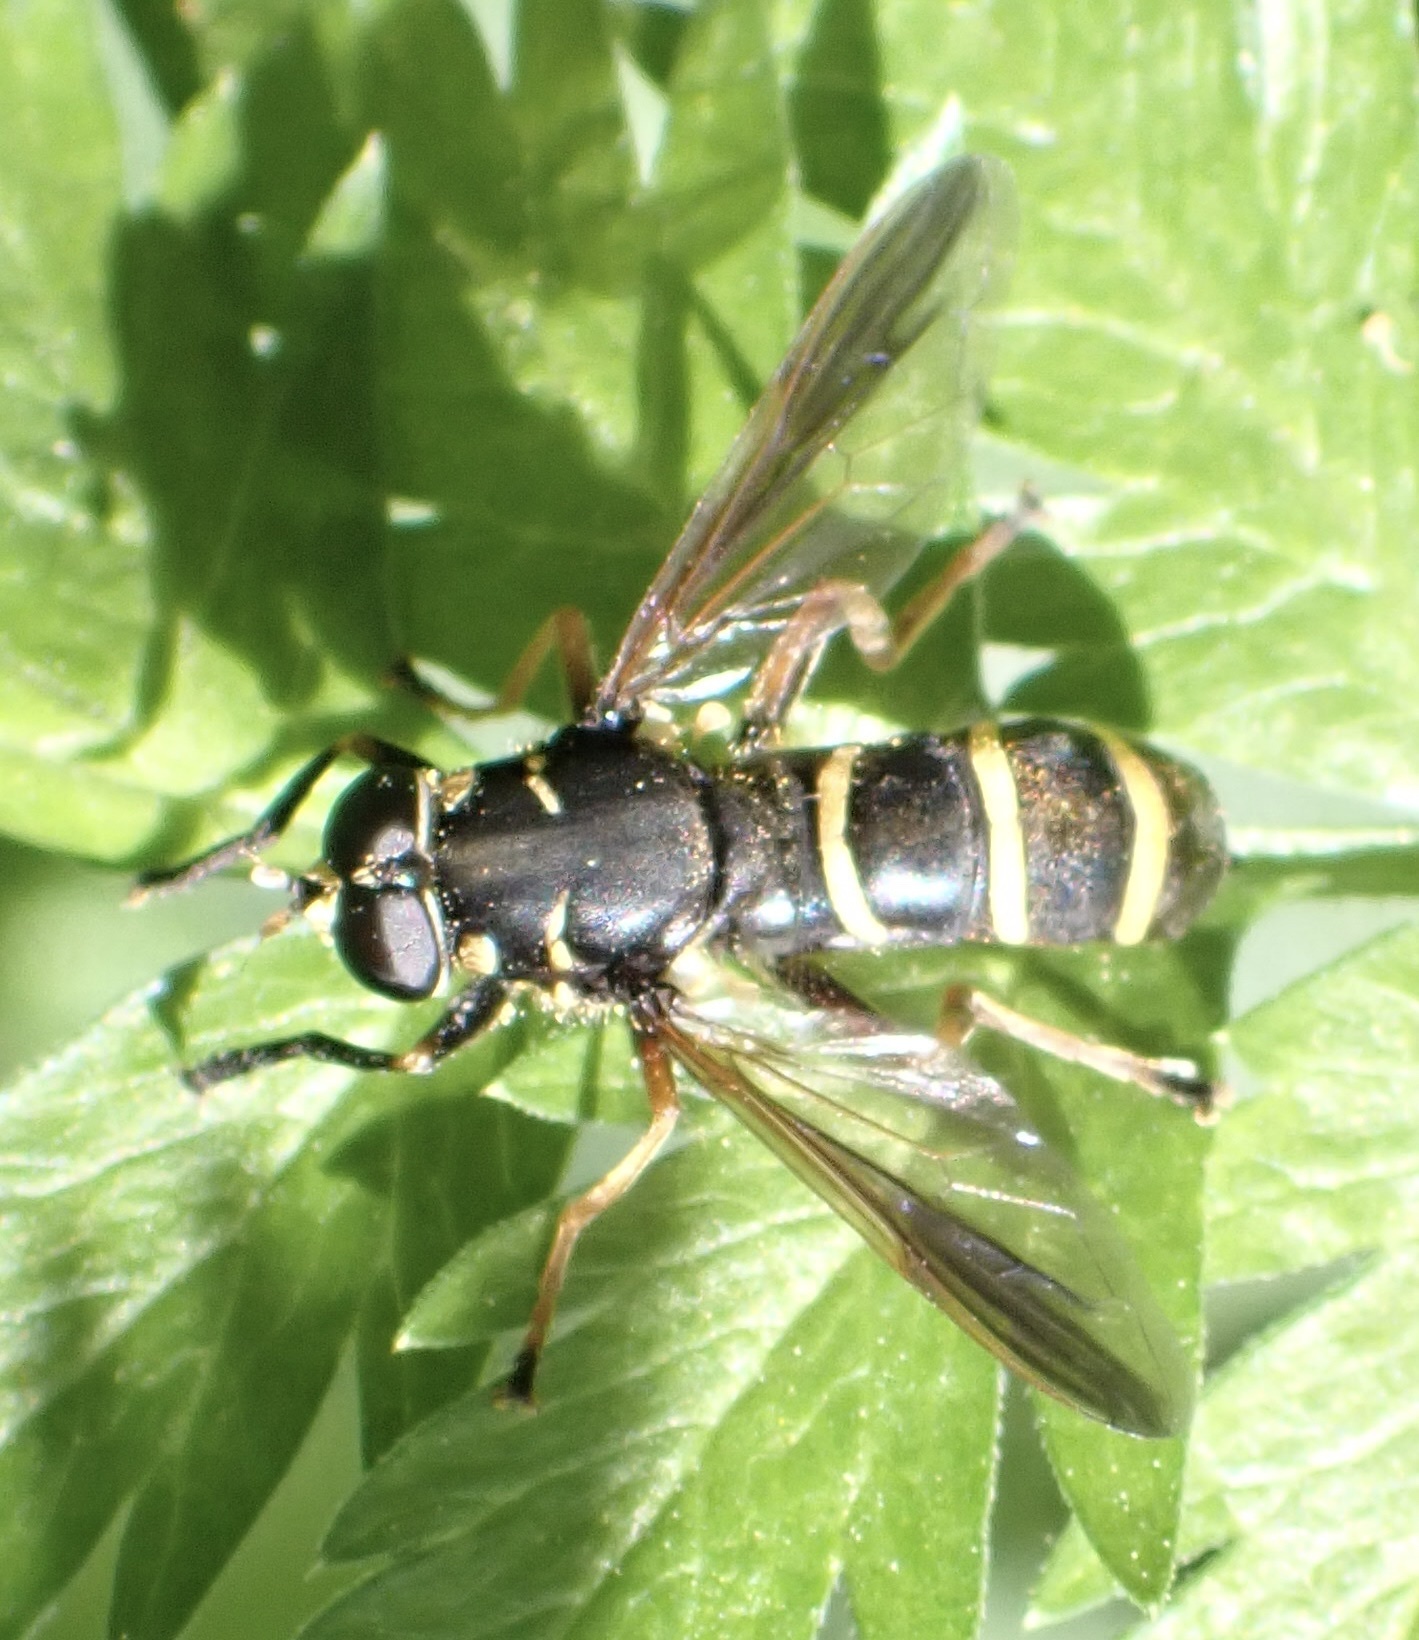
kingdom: Animalia
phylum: Arthropoda
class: Insecta
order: Diptera
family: Syrphidae
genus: Temnostoma
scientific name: Temnostoma bombylans
